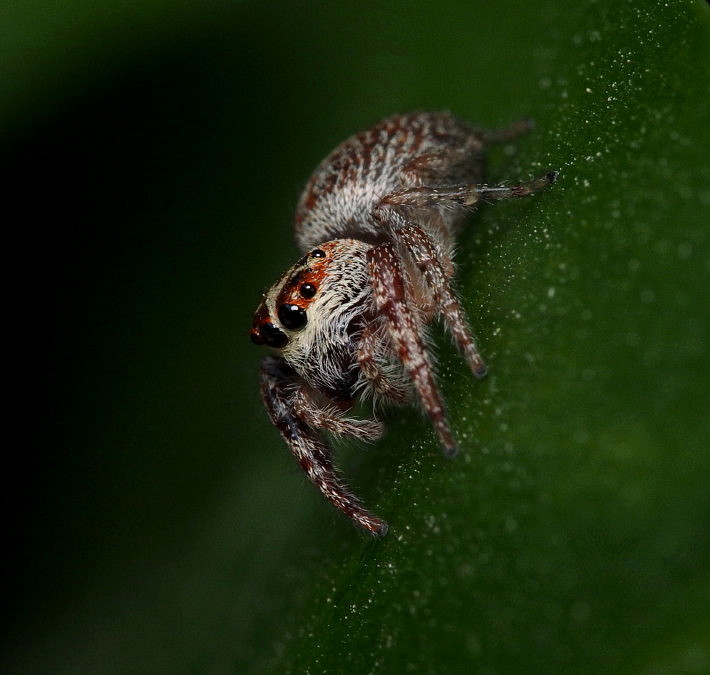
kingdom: Animalia
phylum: Arthropoda
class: Arachnida
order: Araneae
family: Salticidae
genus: Opisthoncus
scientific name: Opisthoncus polyphemus
